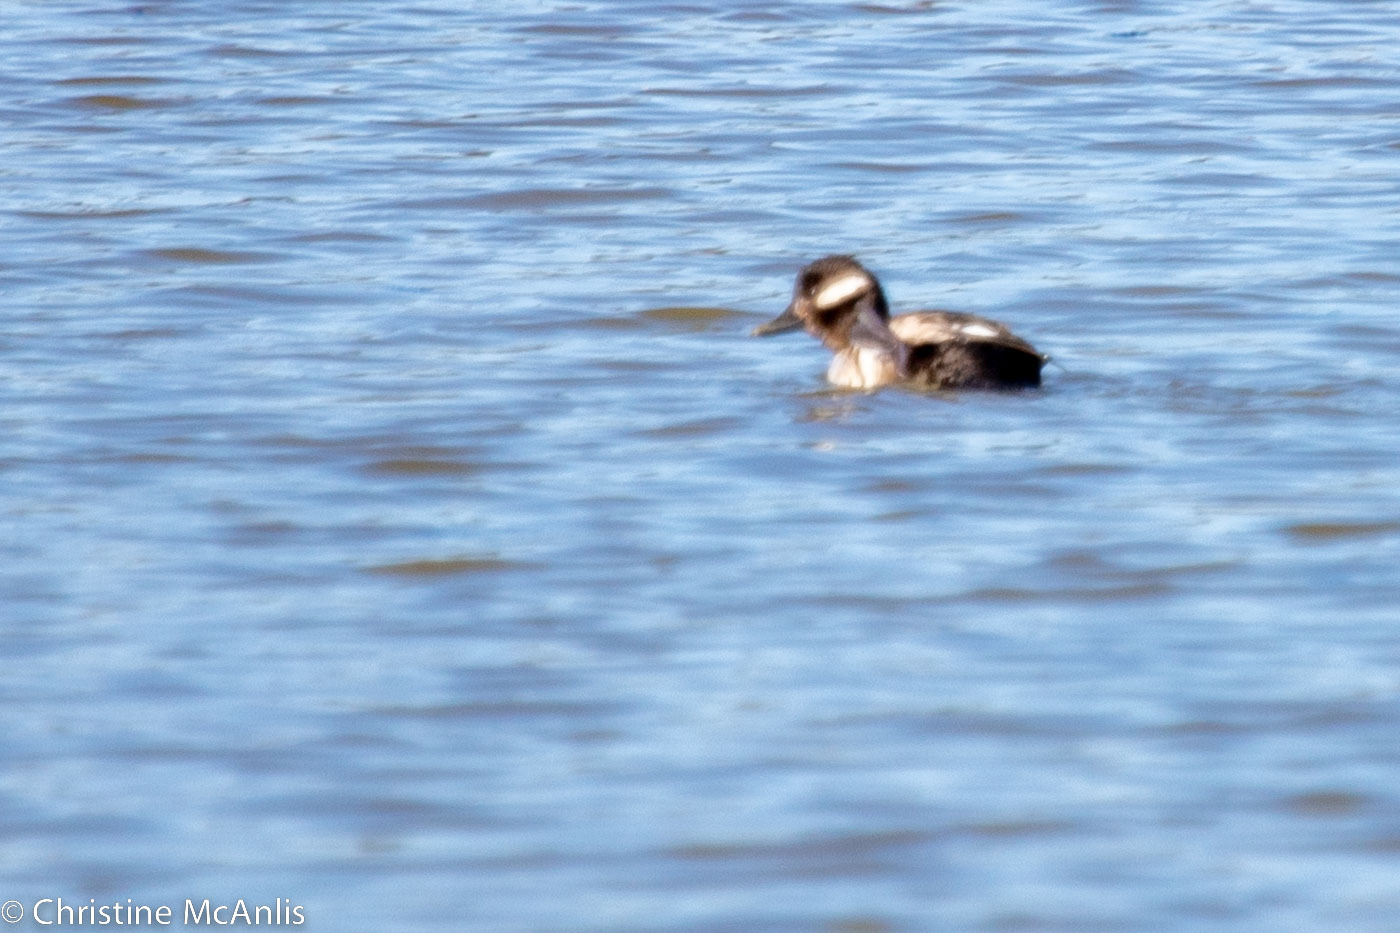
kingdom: Animalia
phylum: Chordata
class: Aves
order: Anseriformes
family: Anatidae
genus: Bucephala
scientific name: Bucephala albeola
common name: Bufflehead
